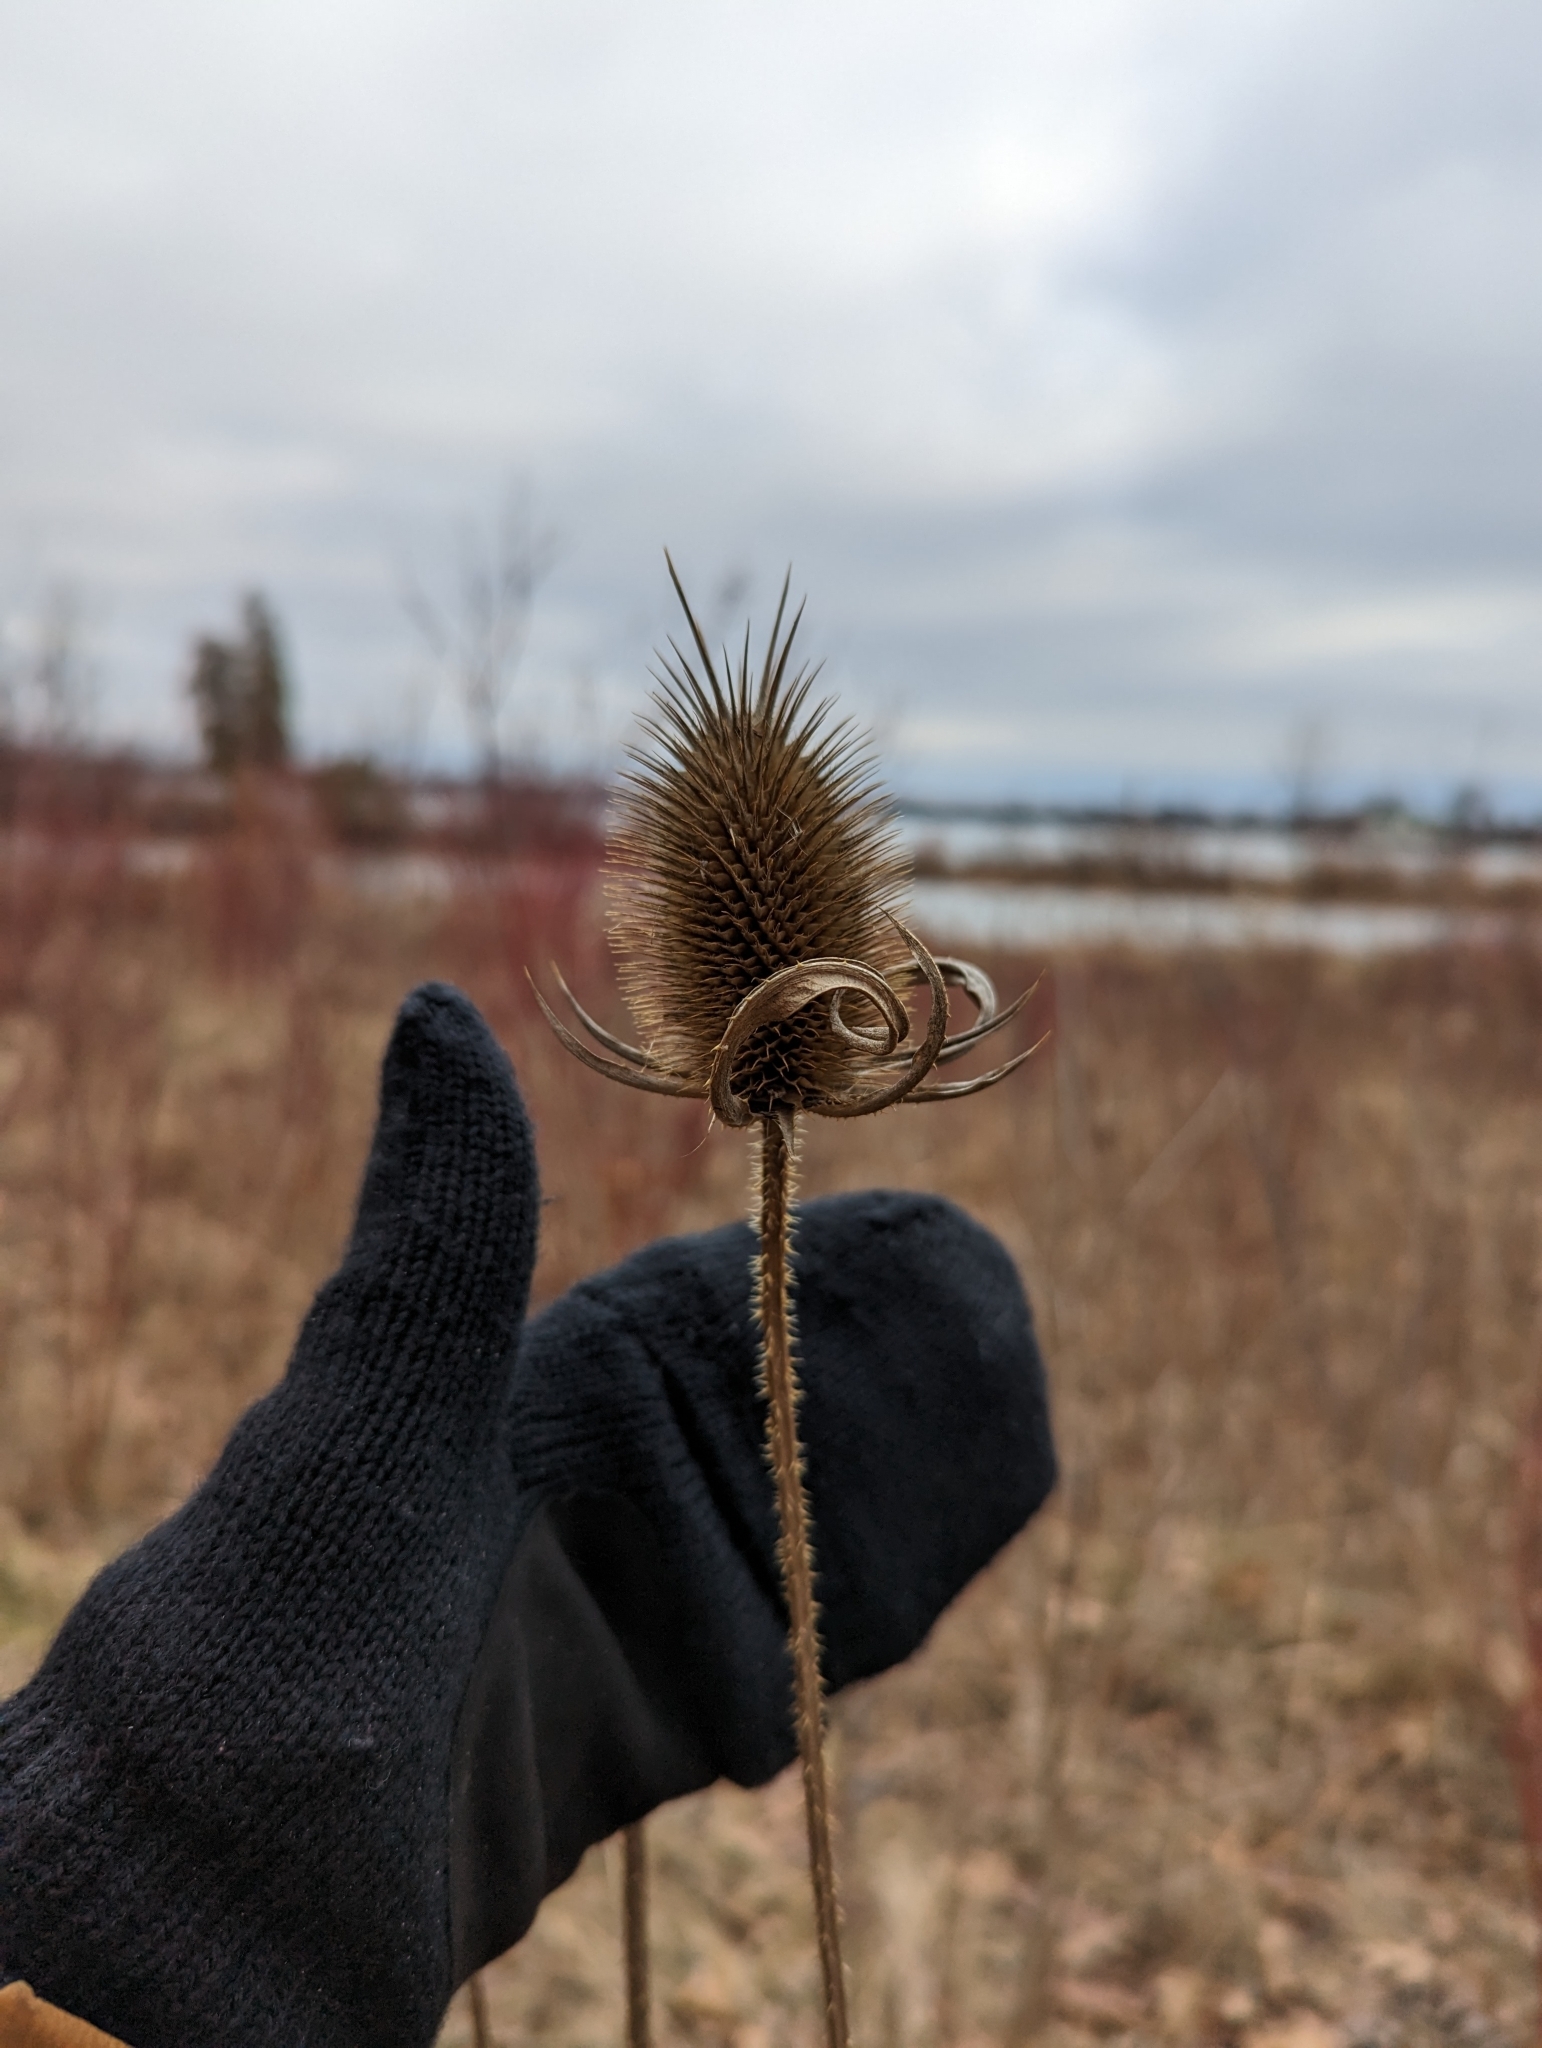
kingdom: Plantae
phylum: Tracheophyta
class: Magnoliopsida
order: Dipsacales
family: Caprifoliaceae
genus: Dipsacus
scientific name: Dipsacus laciniatus
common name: Cut-leaved teasel
